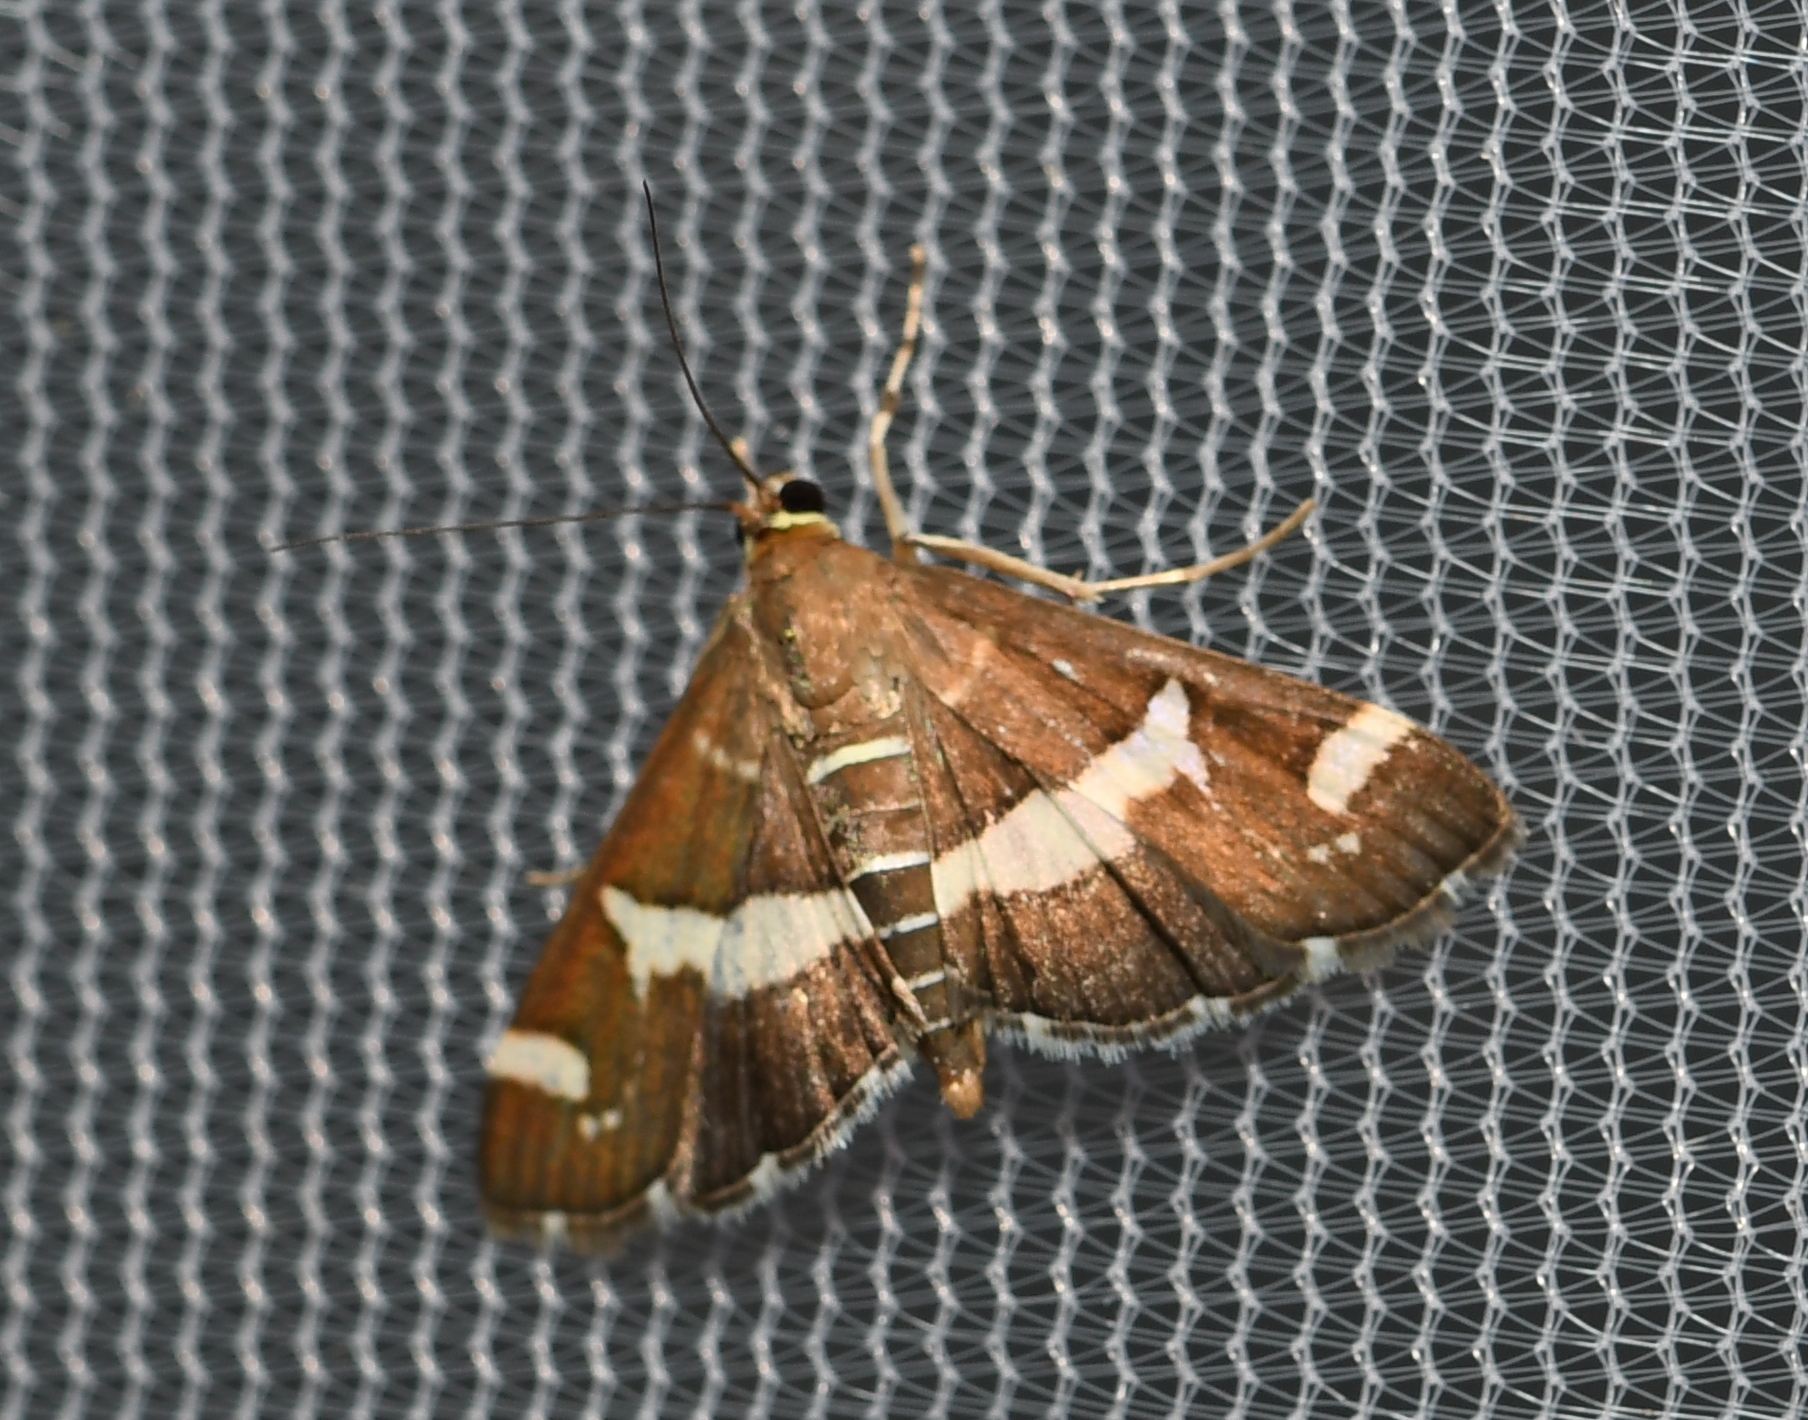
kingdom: Animalia
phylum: Arthropoda
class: Insecta
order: Lepidoptera
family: Crambidae
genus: Spoladea
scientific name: Spoladea recurvalis
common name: Beet webworm moth
